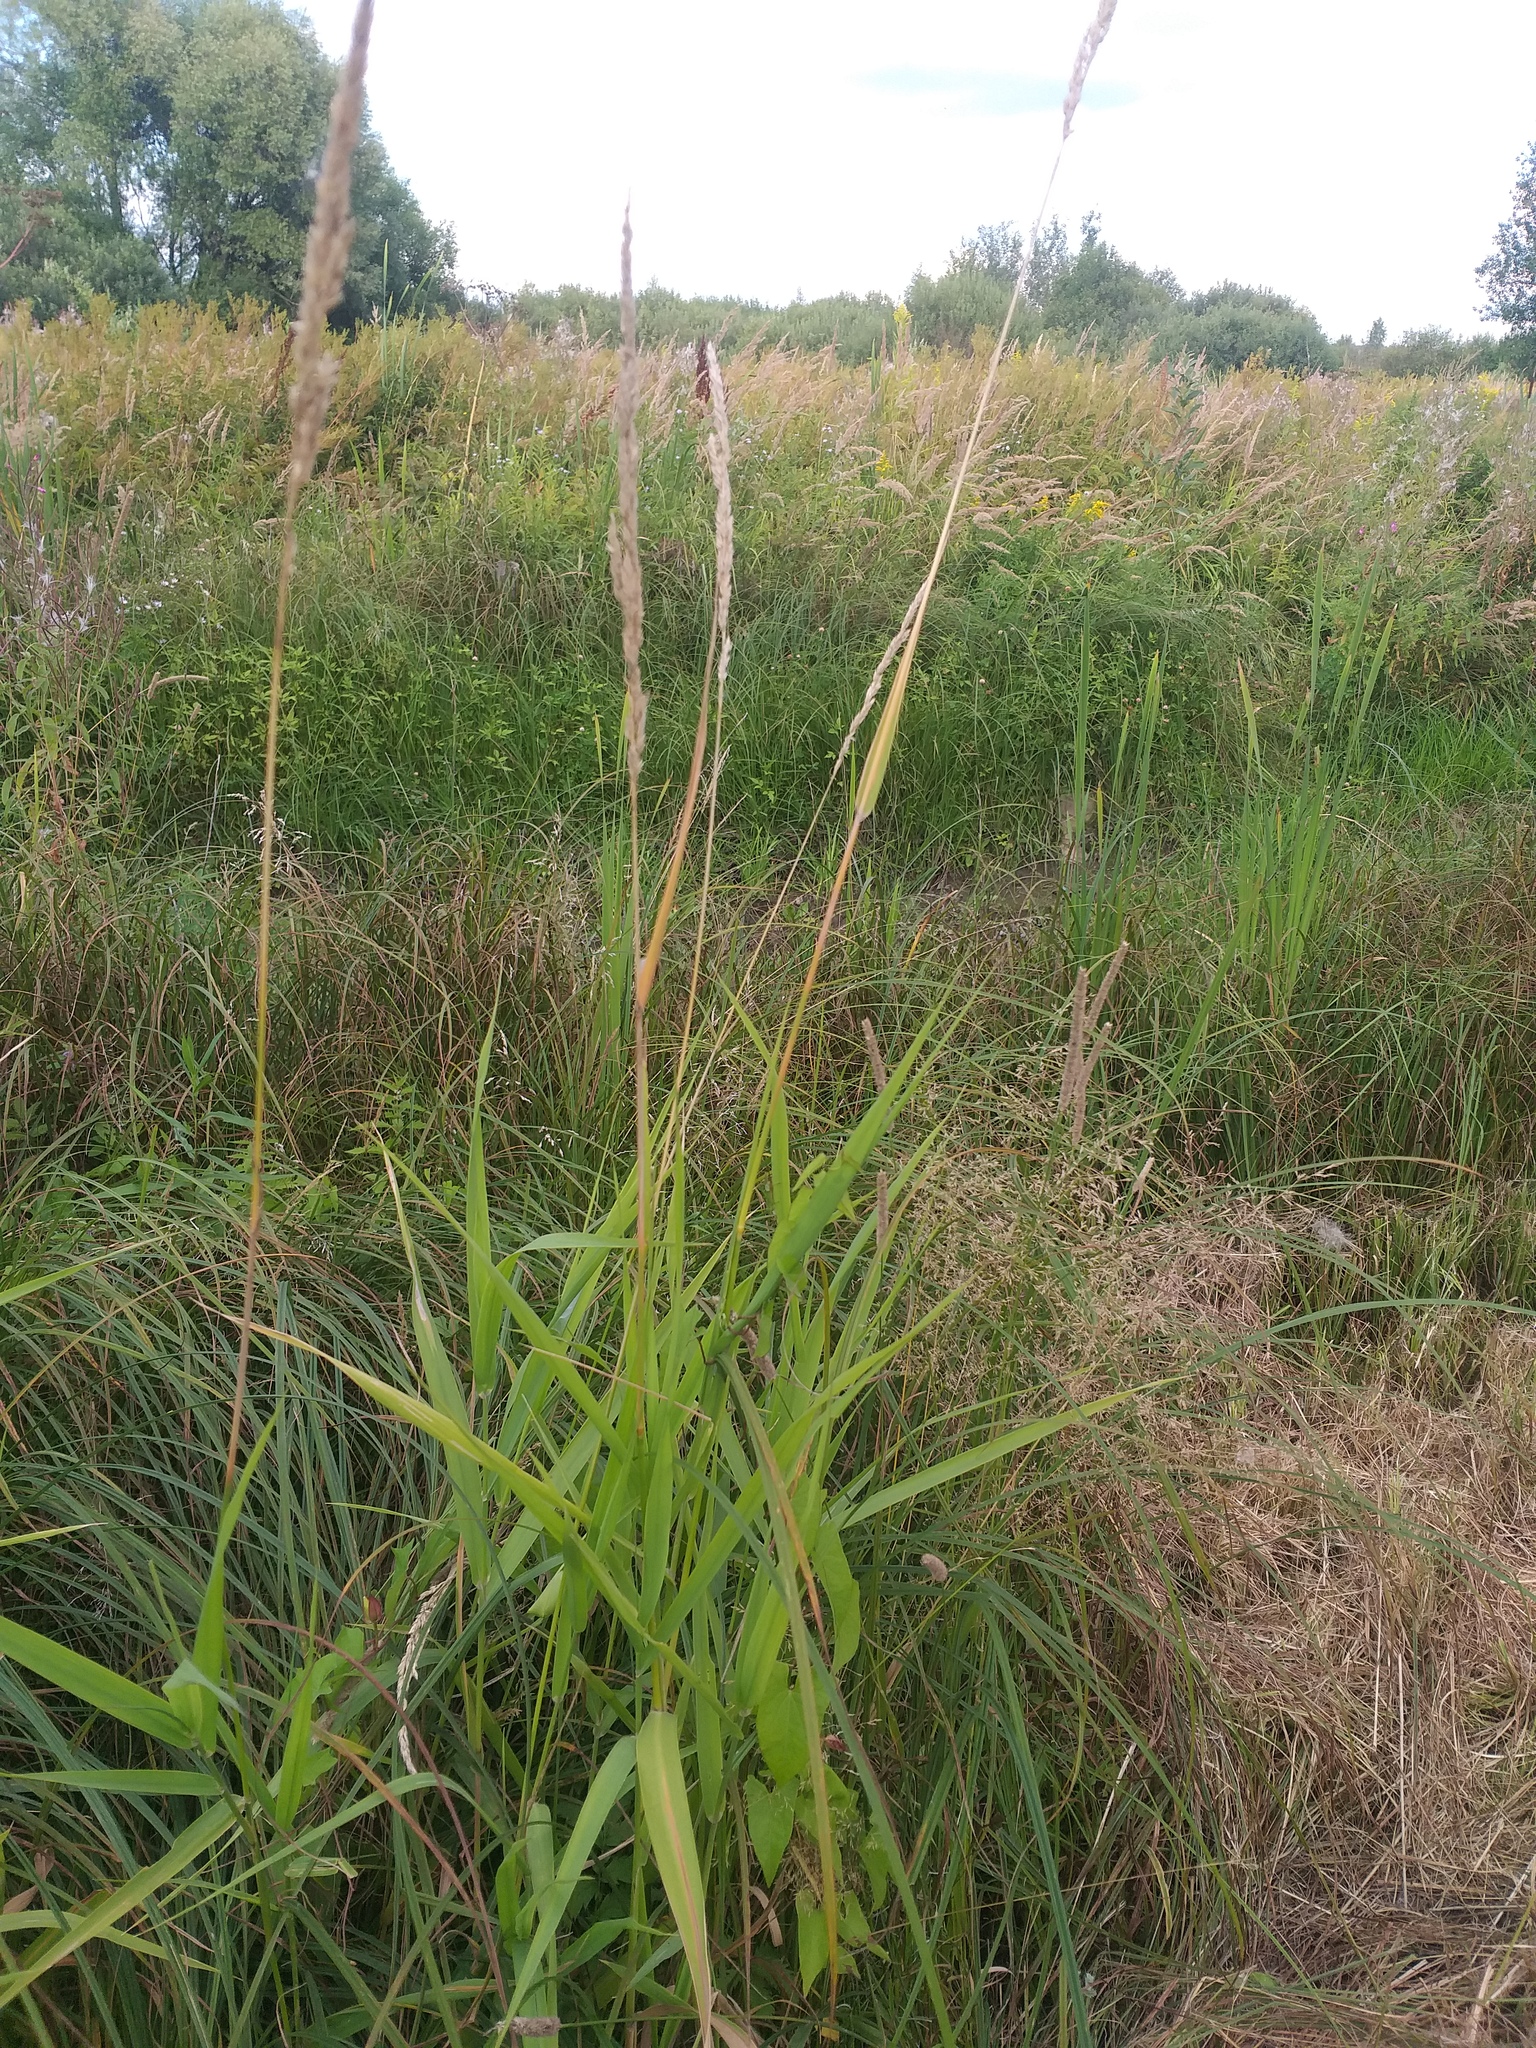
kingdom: Plantae
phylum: Tracheophyta
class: Liliopsida
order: Poales
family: Poaceae
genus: Phalaris
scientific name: Phalaris arundinacea
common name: Reed canary-grass
